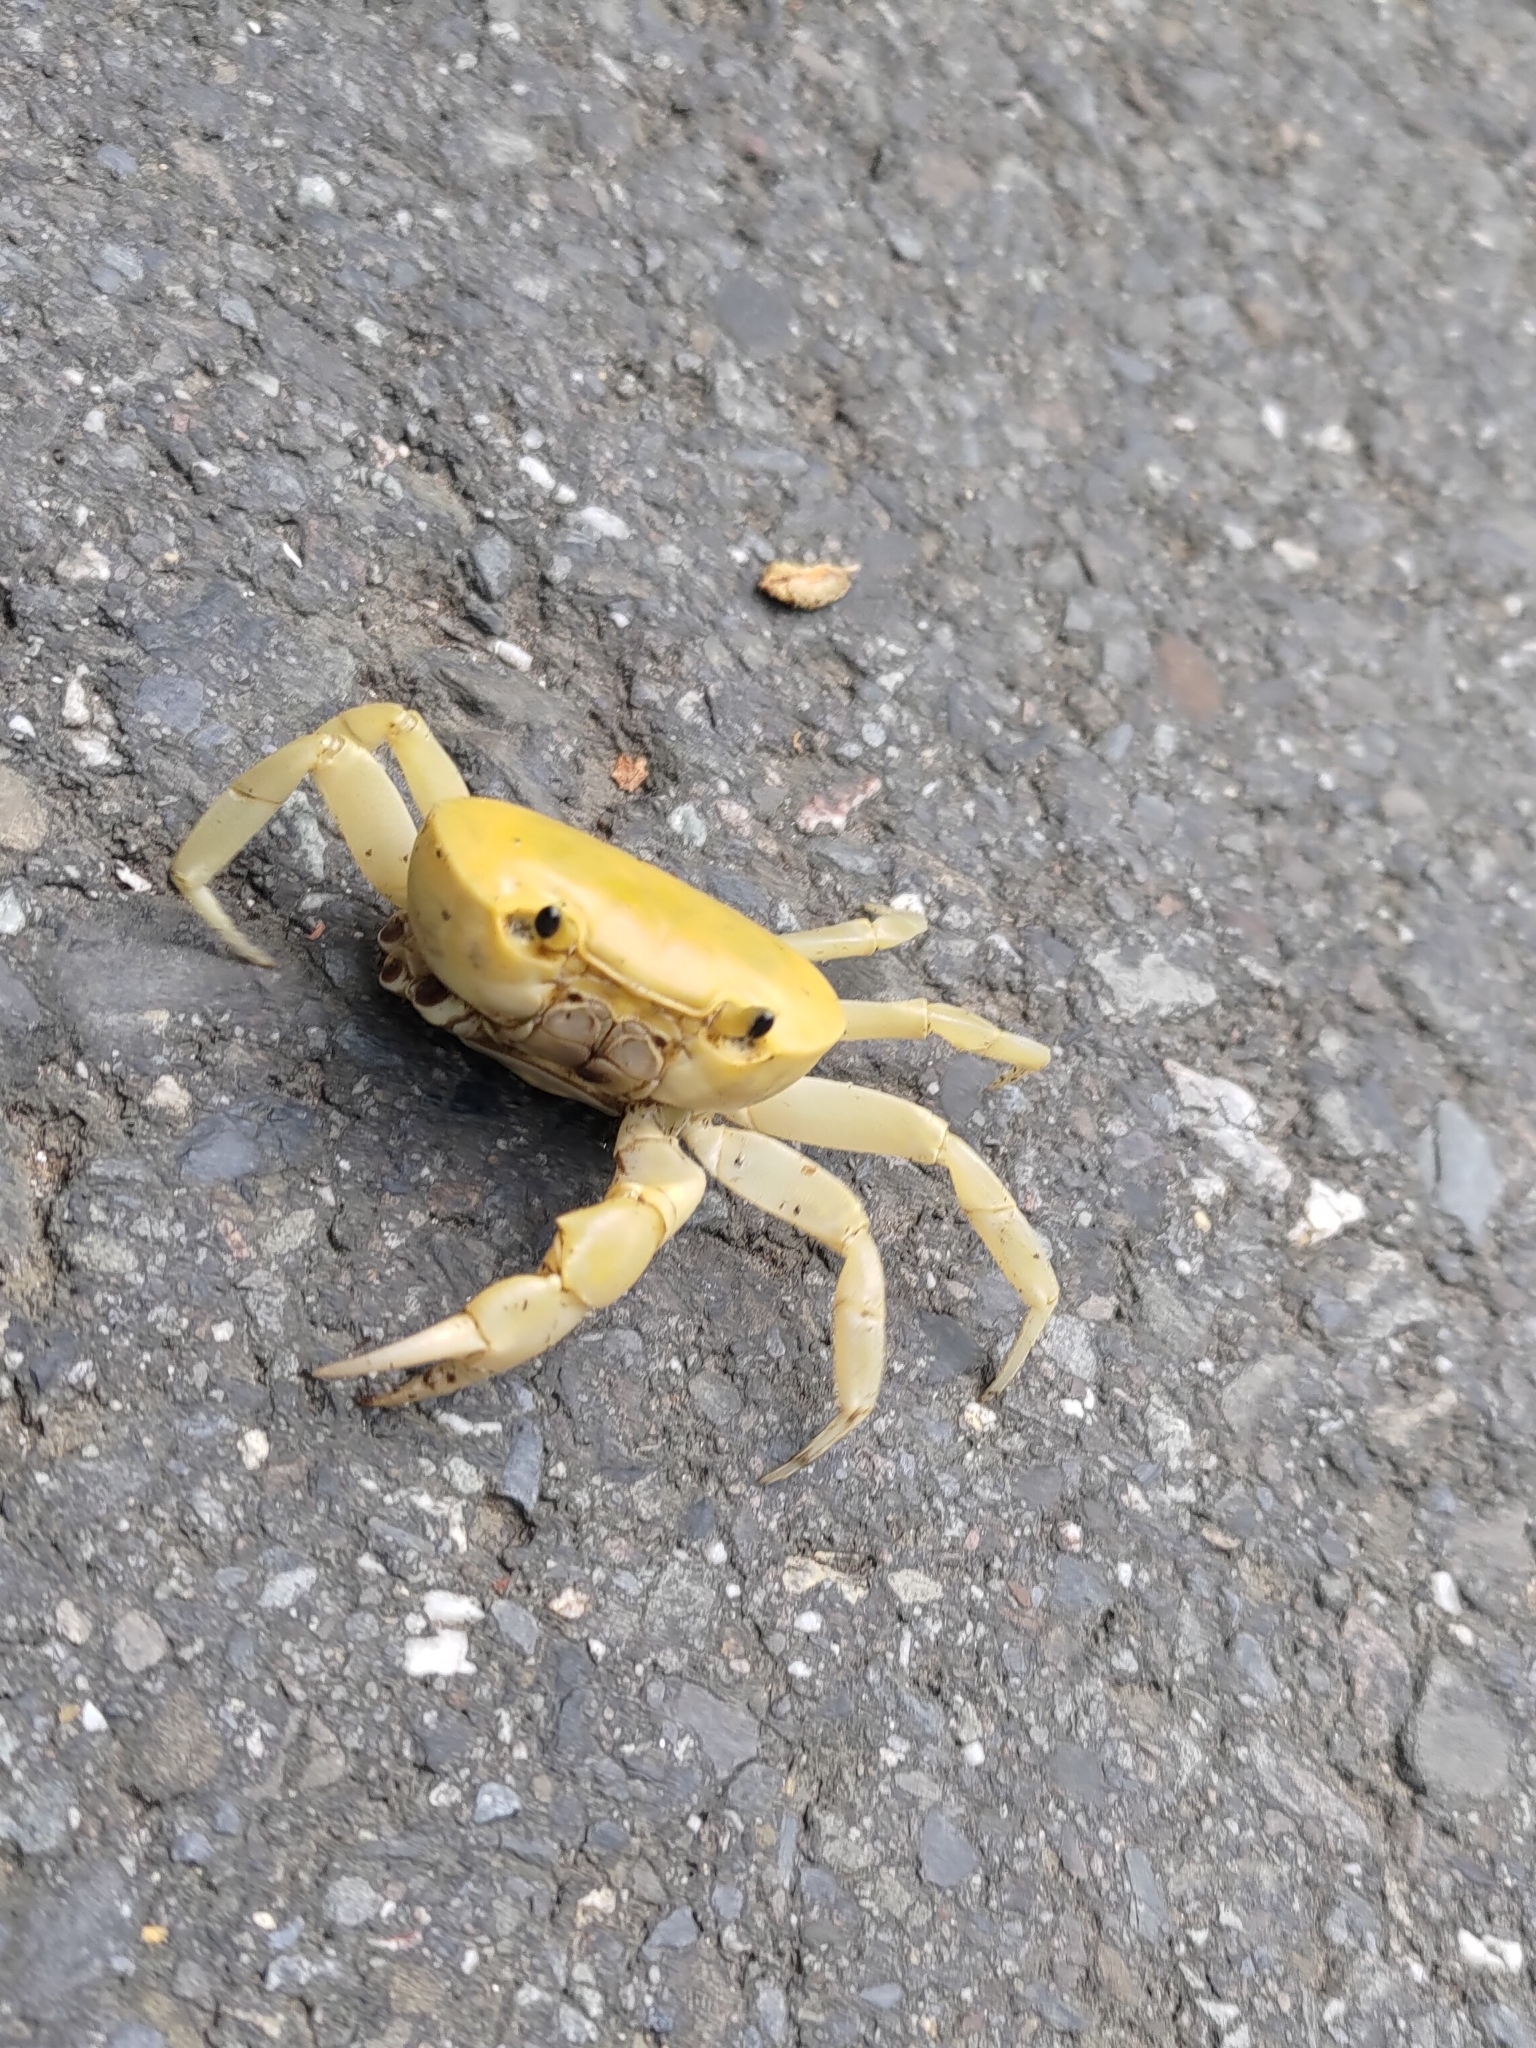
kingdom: Animalia
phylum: Arthropoda
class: Malacostraca
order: Decapoda
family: Potamidae
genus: Geothelphusa
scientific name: Geothelphusa albogilva
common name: Huang ze gray crab
